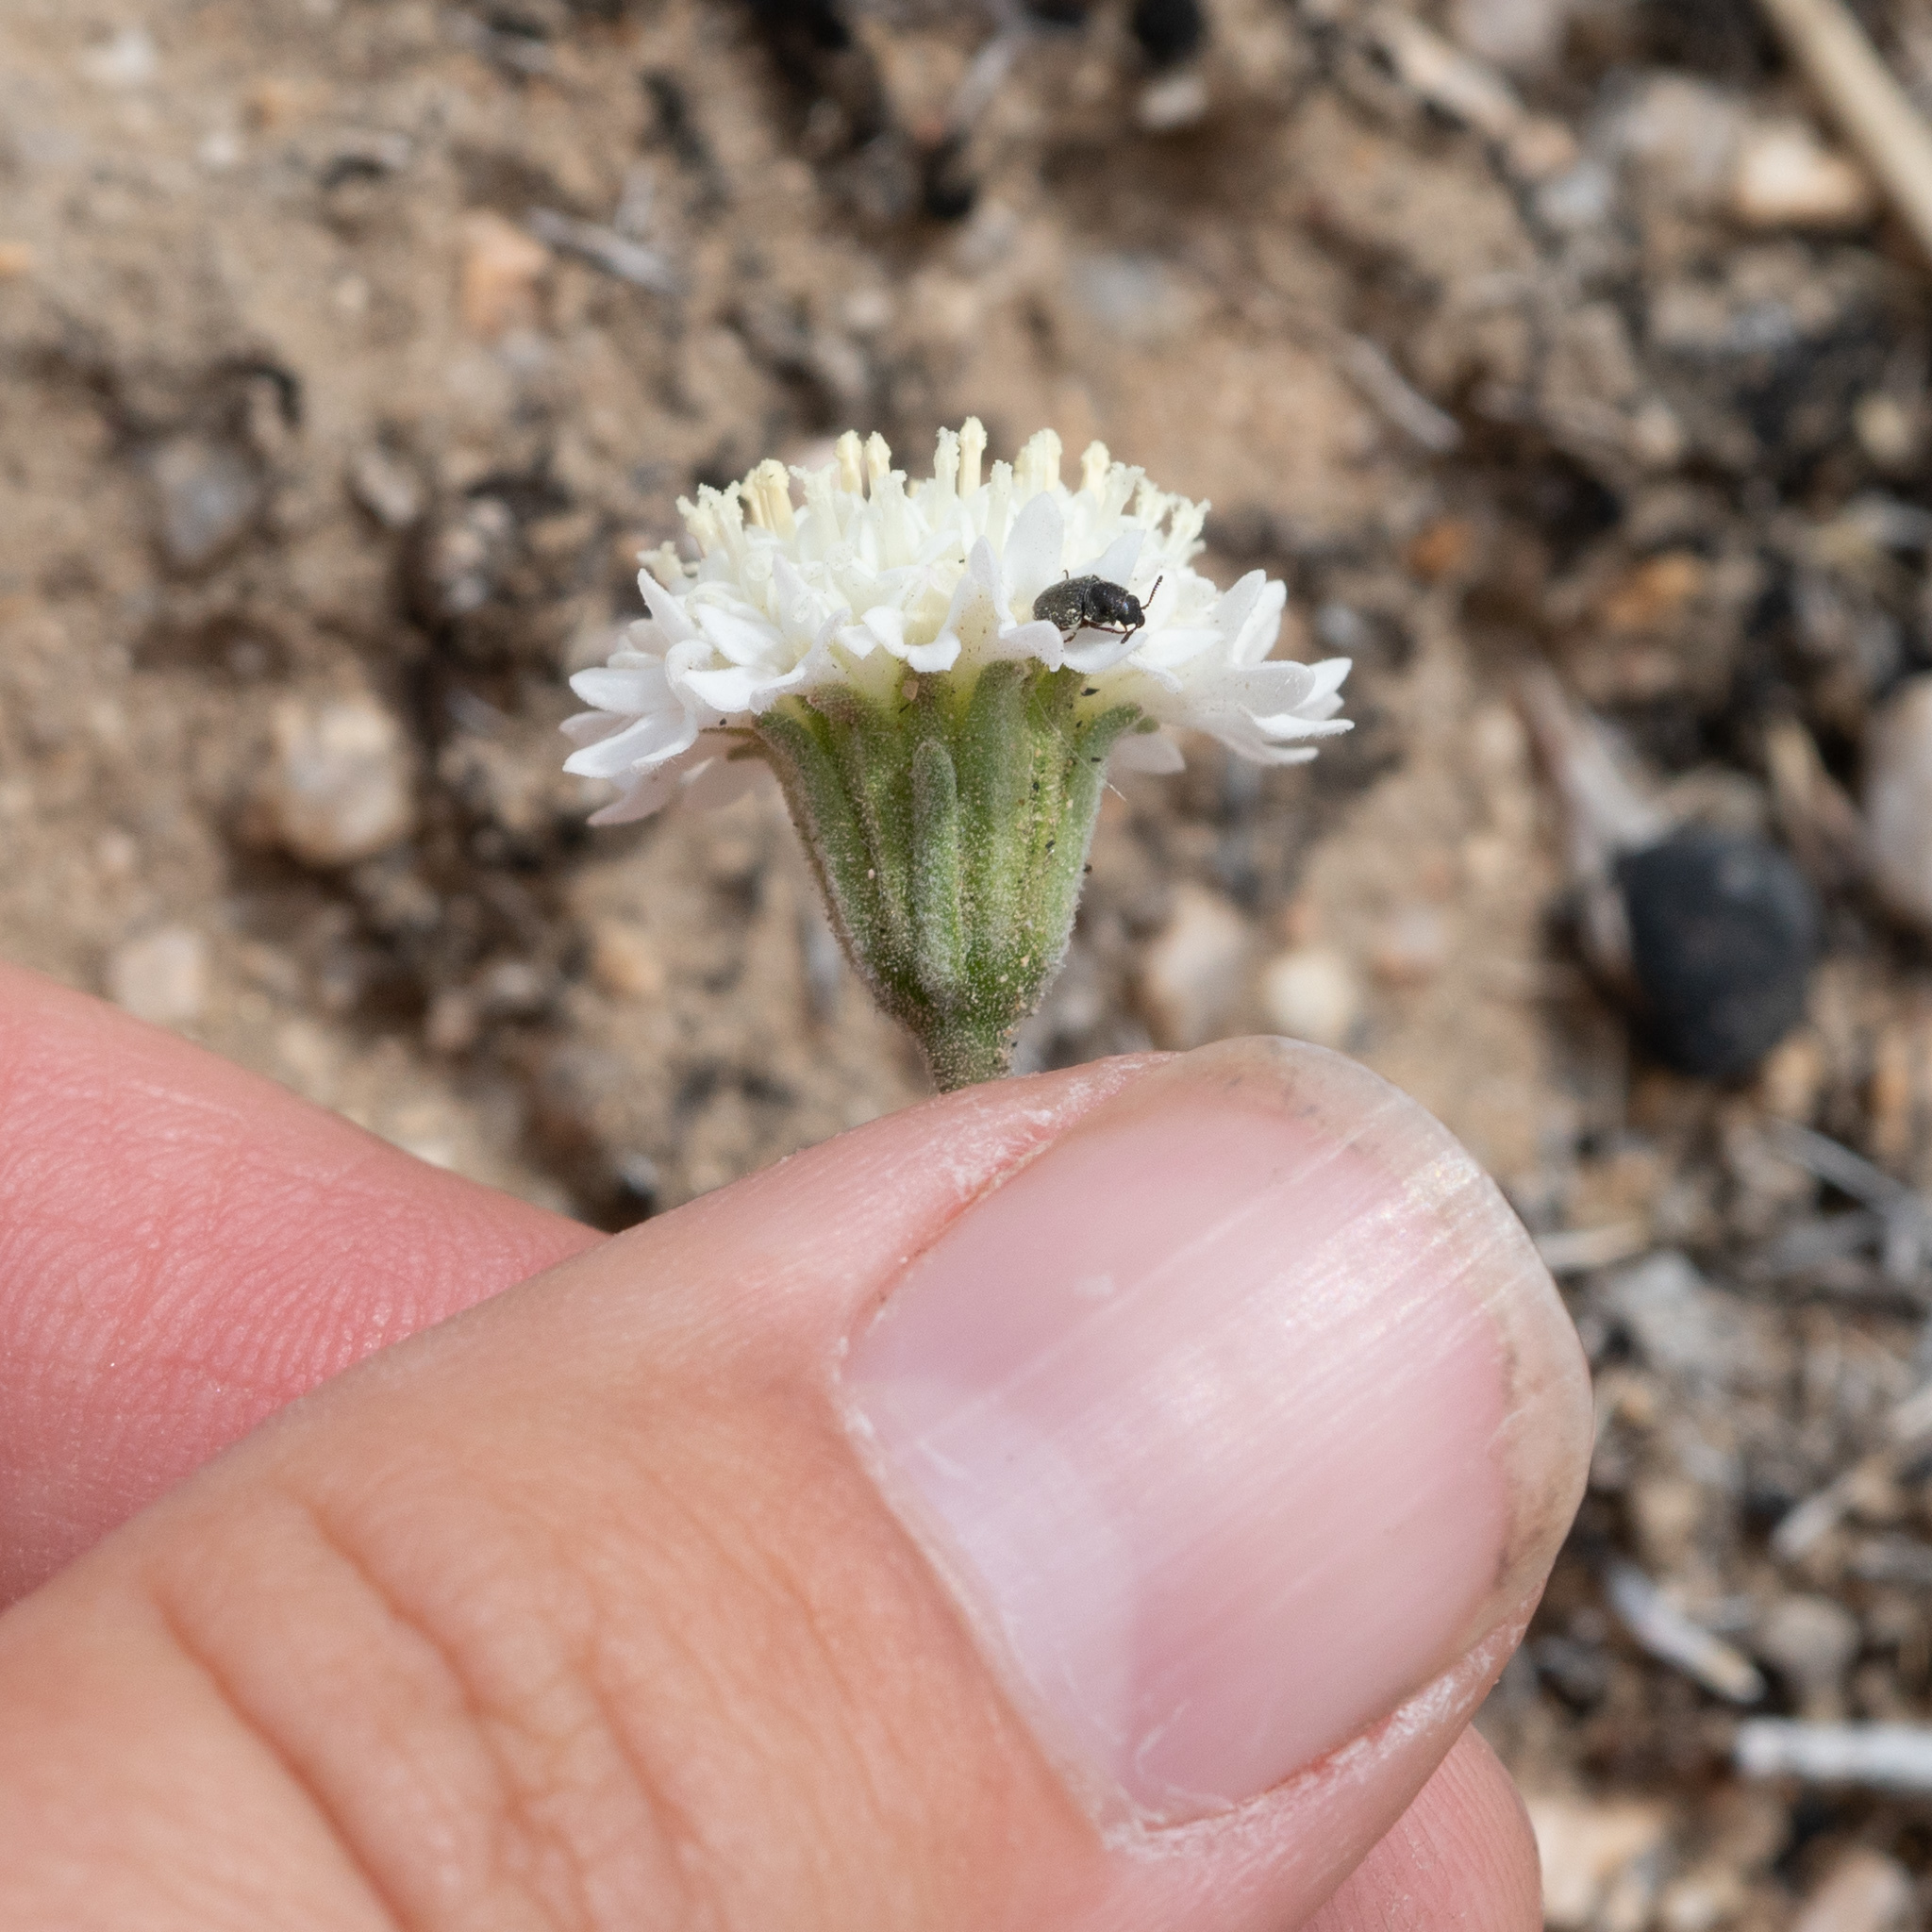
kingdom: Plantae
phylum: Tracheophyta
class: Magnoliopsida
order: Asterales
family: Asteraceae
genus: Chaenactis
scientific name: Chaenactis stevioides
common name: Desert pincushion
